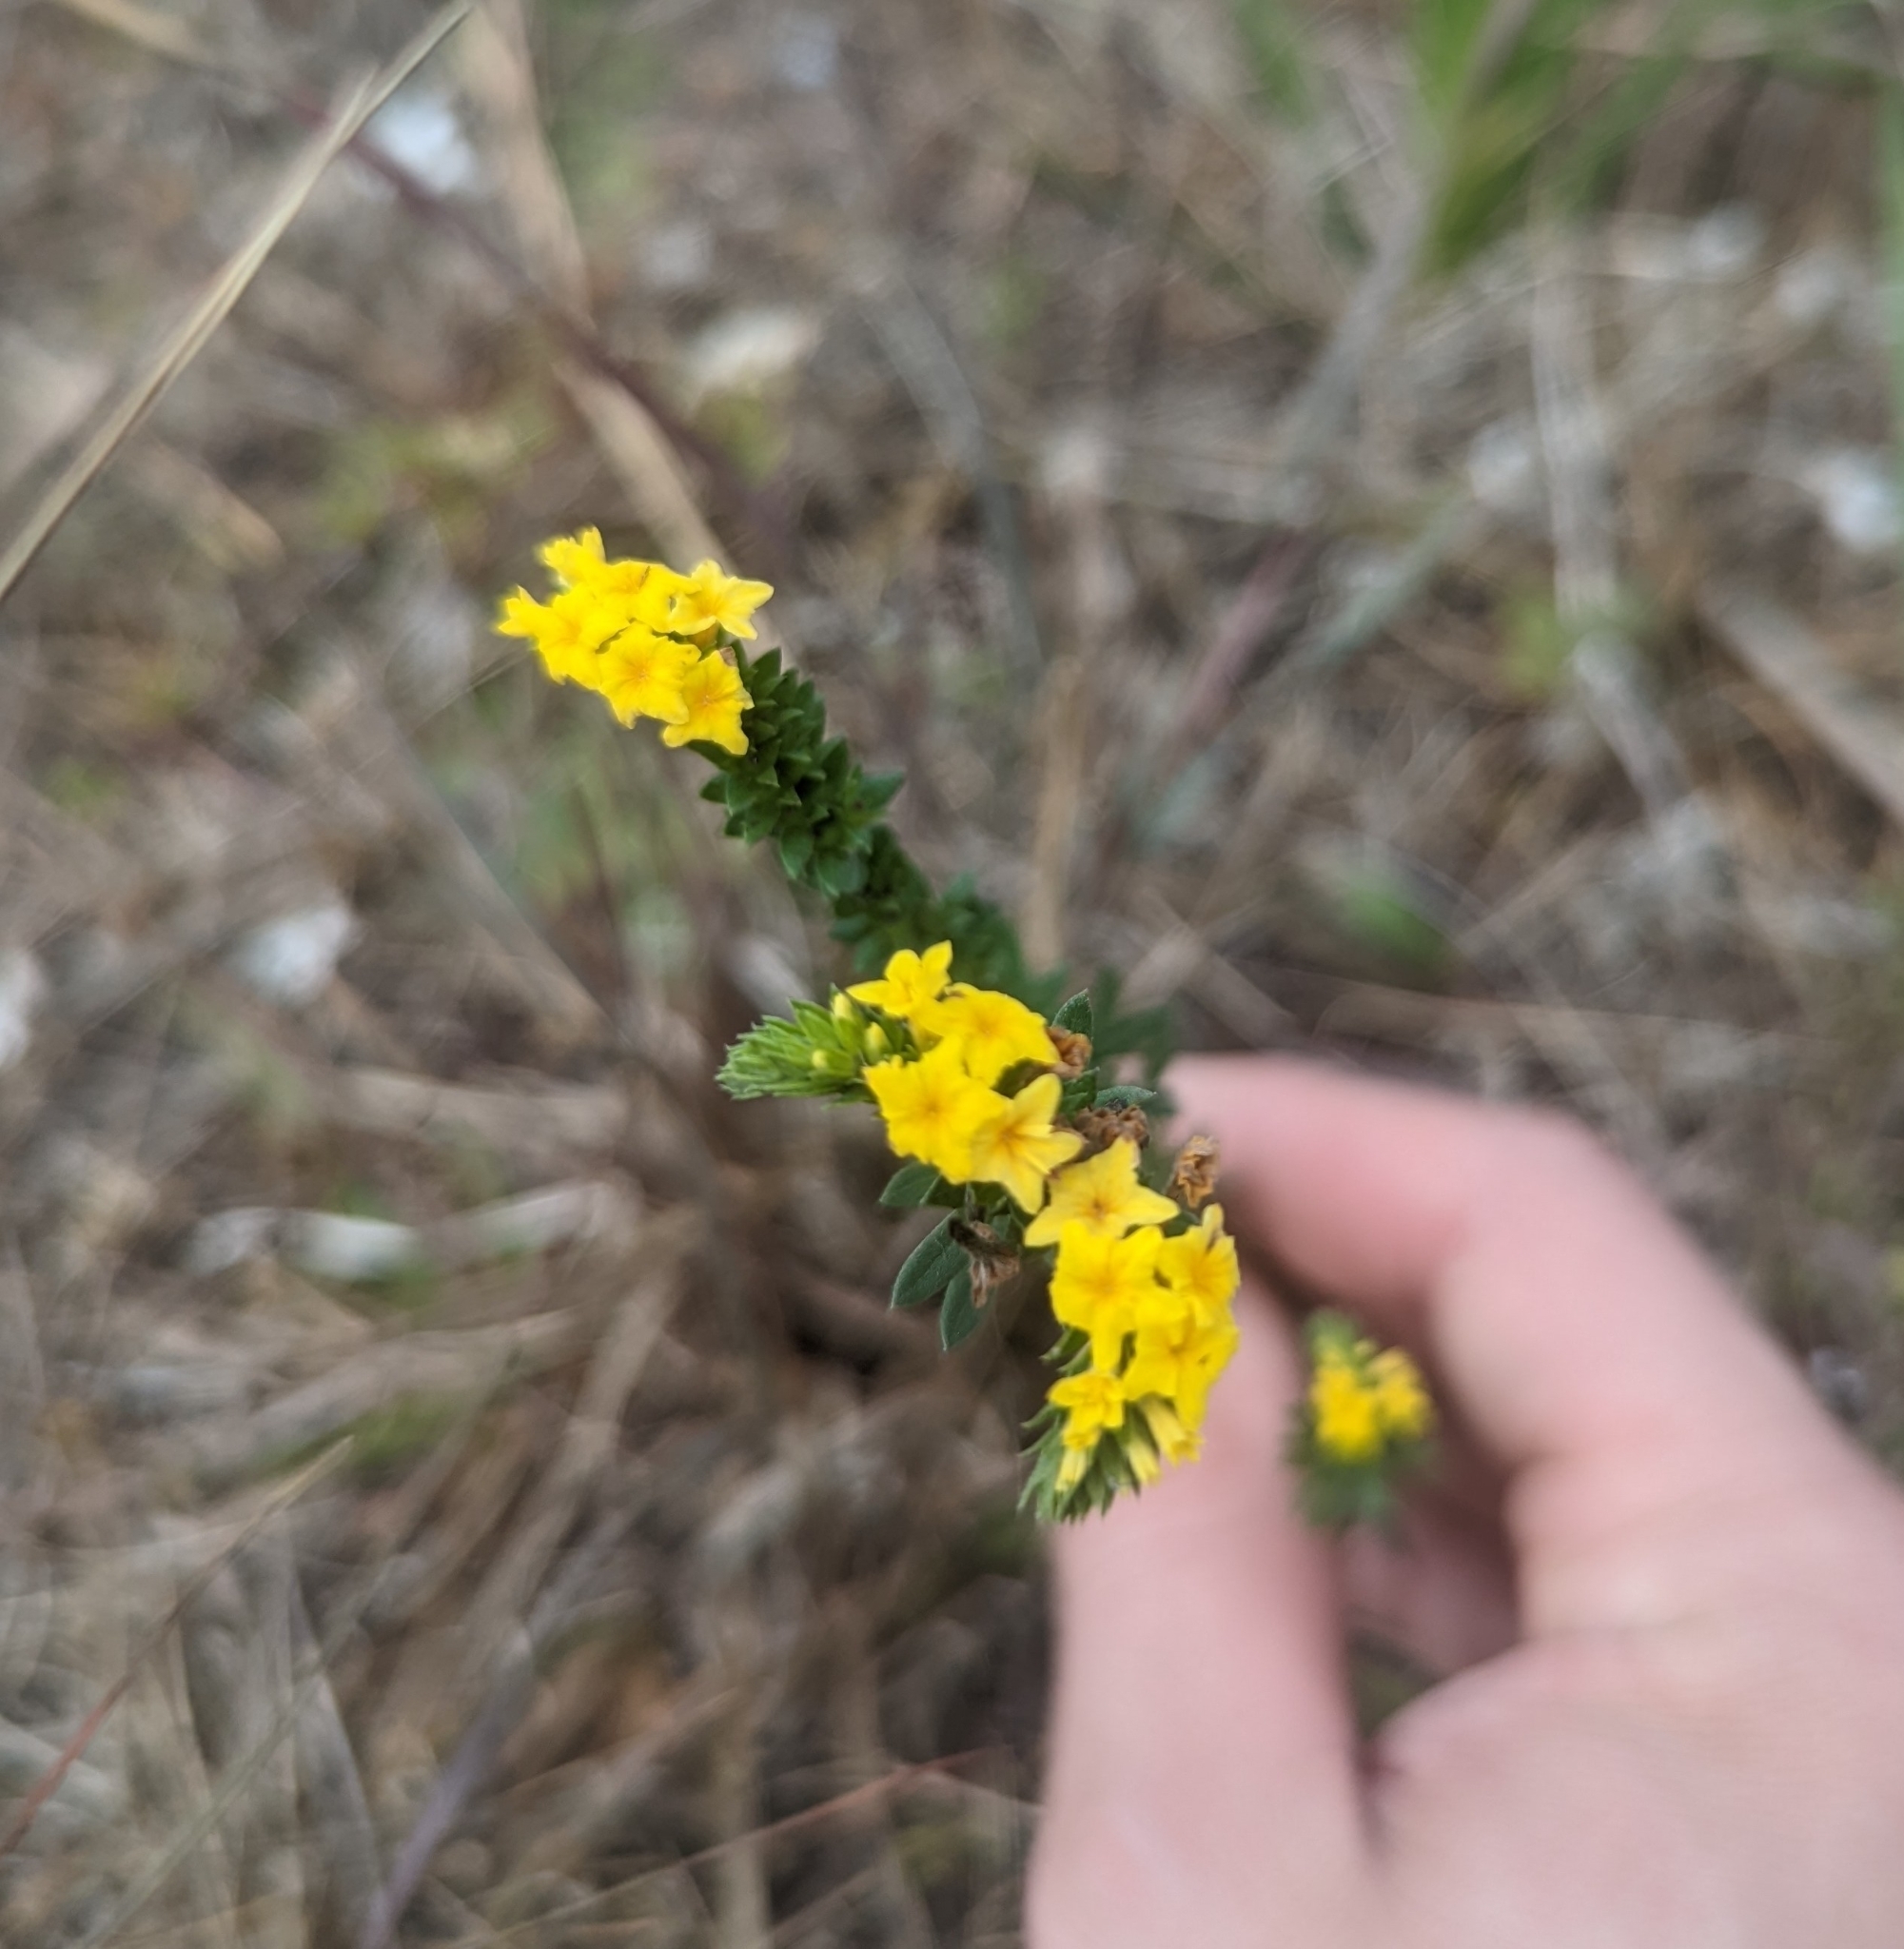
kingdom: Plantae
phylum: Tracheophyta
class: Magnoliopsida
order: Boraginales
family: Heliotropiaceae
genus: Euploca
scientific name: Euploca polyphylla
